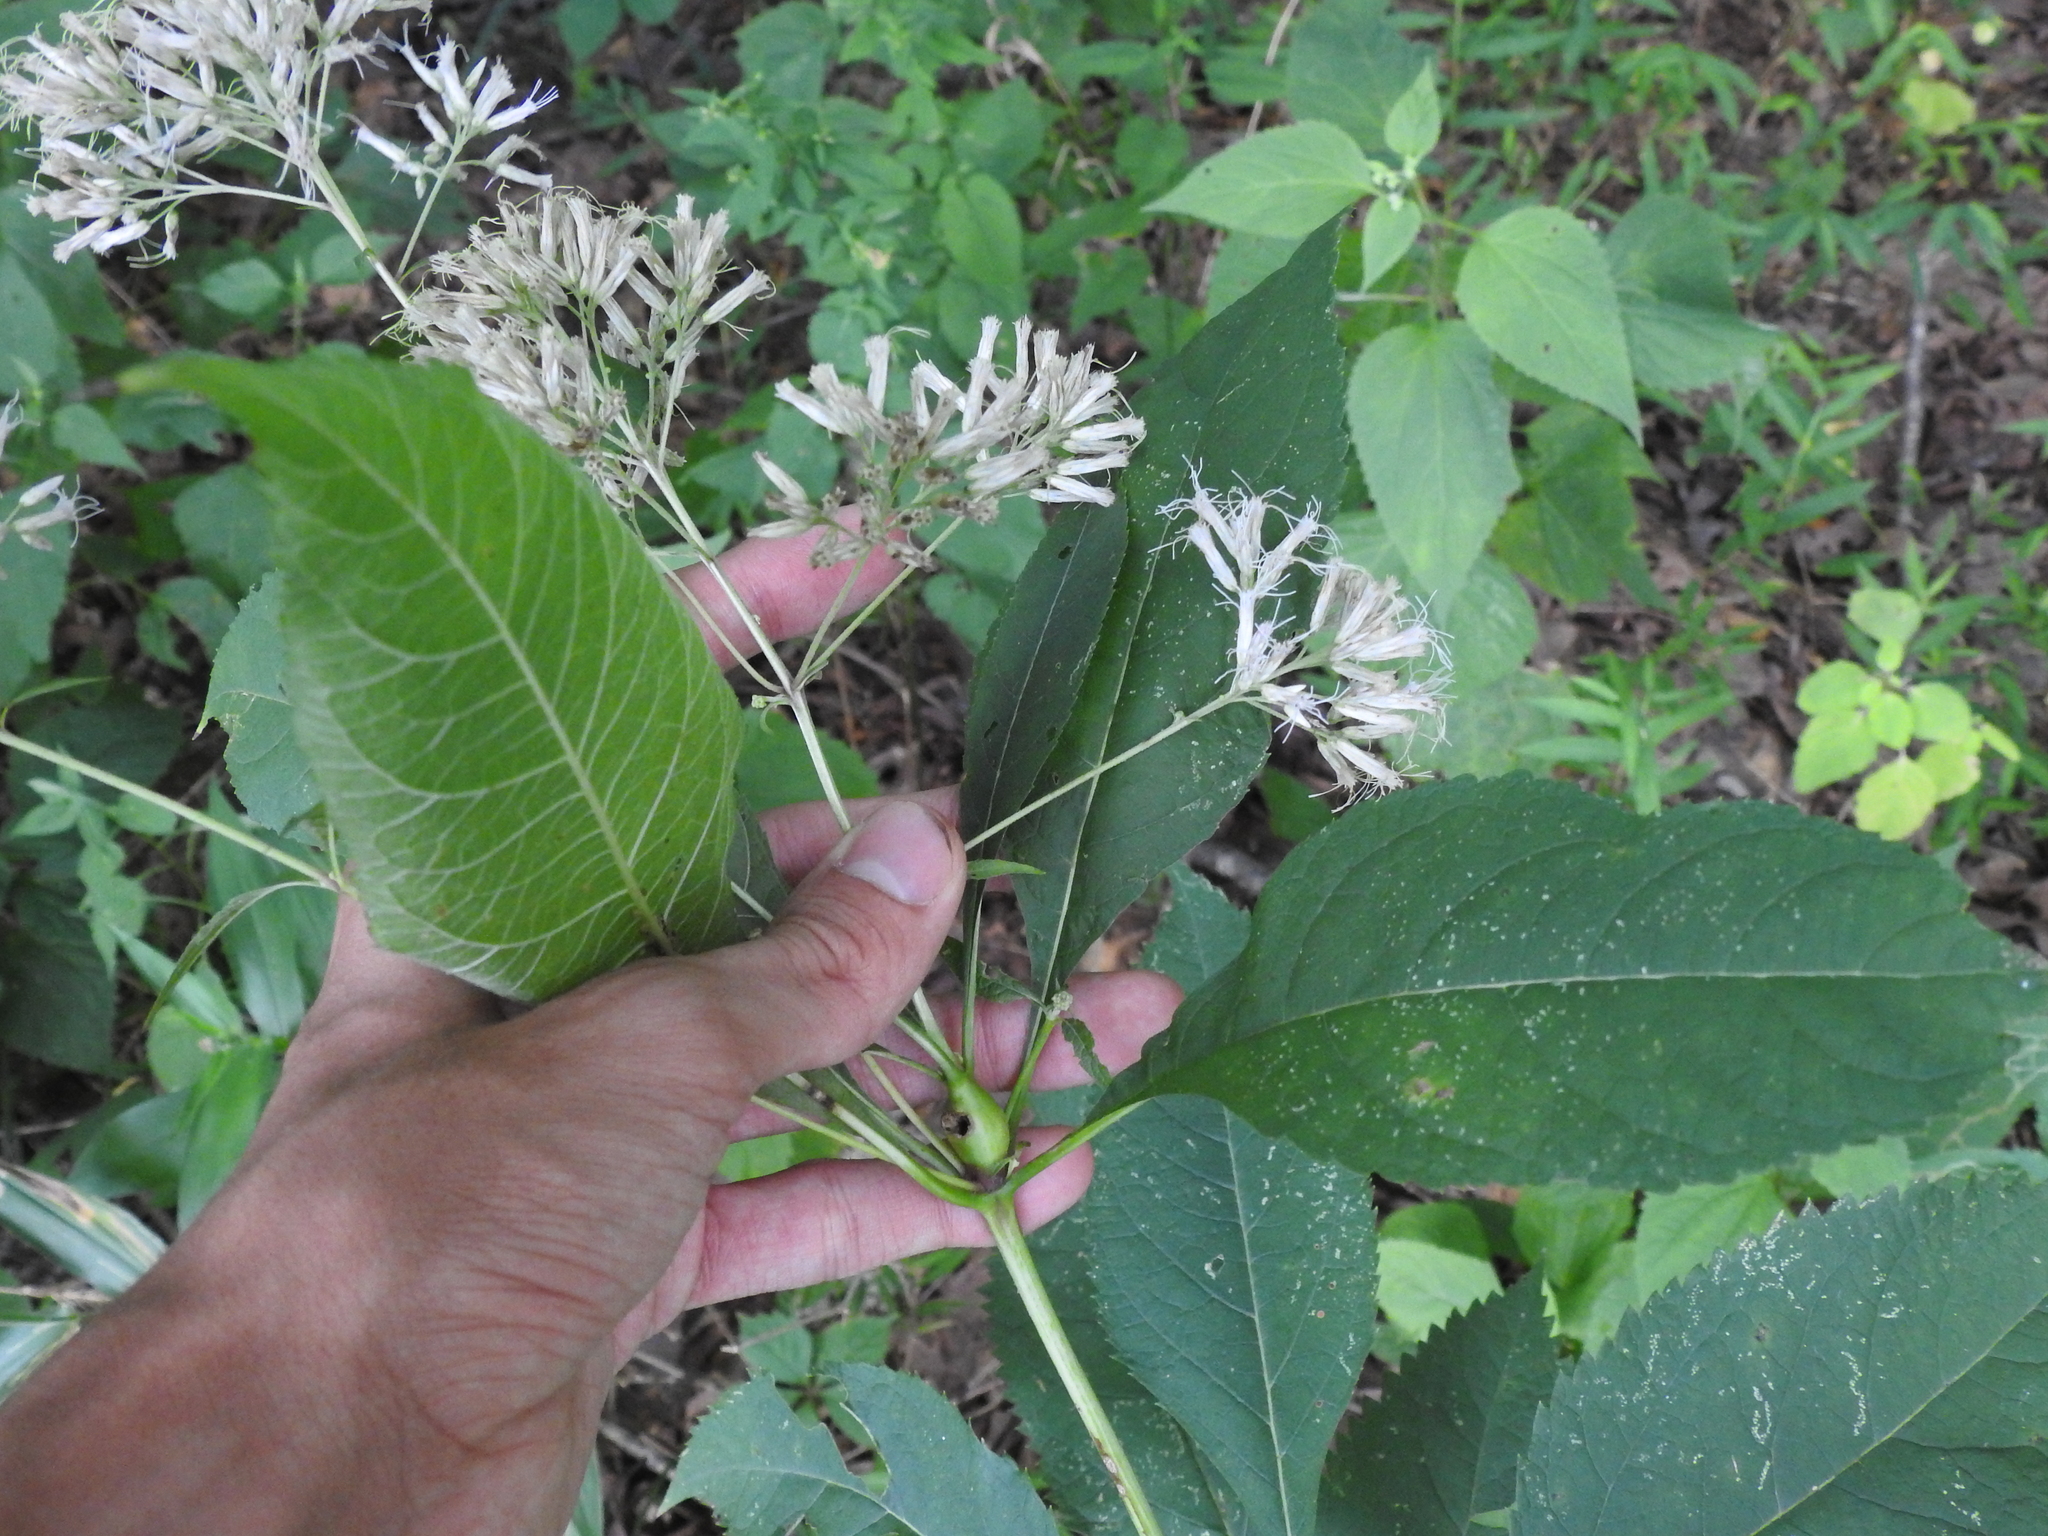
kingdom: Plantae
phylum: Tracheophyta
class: Magnoliopsida
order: Asterales
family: Asteraceae
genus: Eutrochium
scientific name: Eutrochium purpureum
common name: Gravelroot
